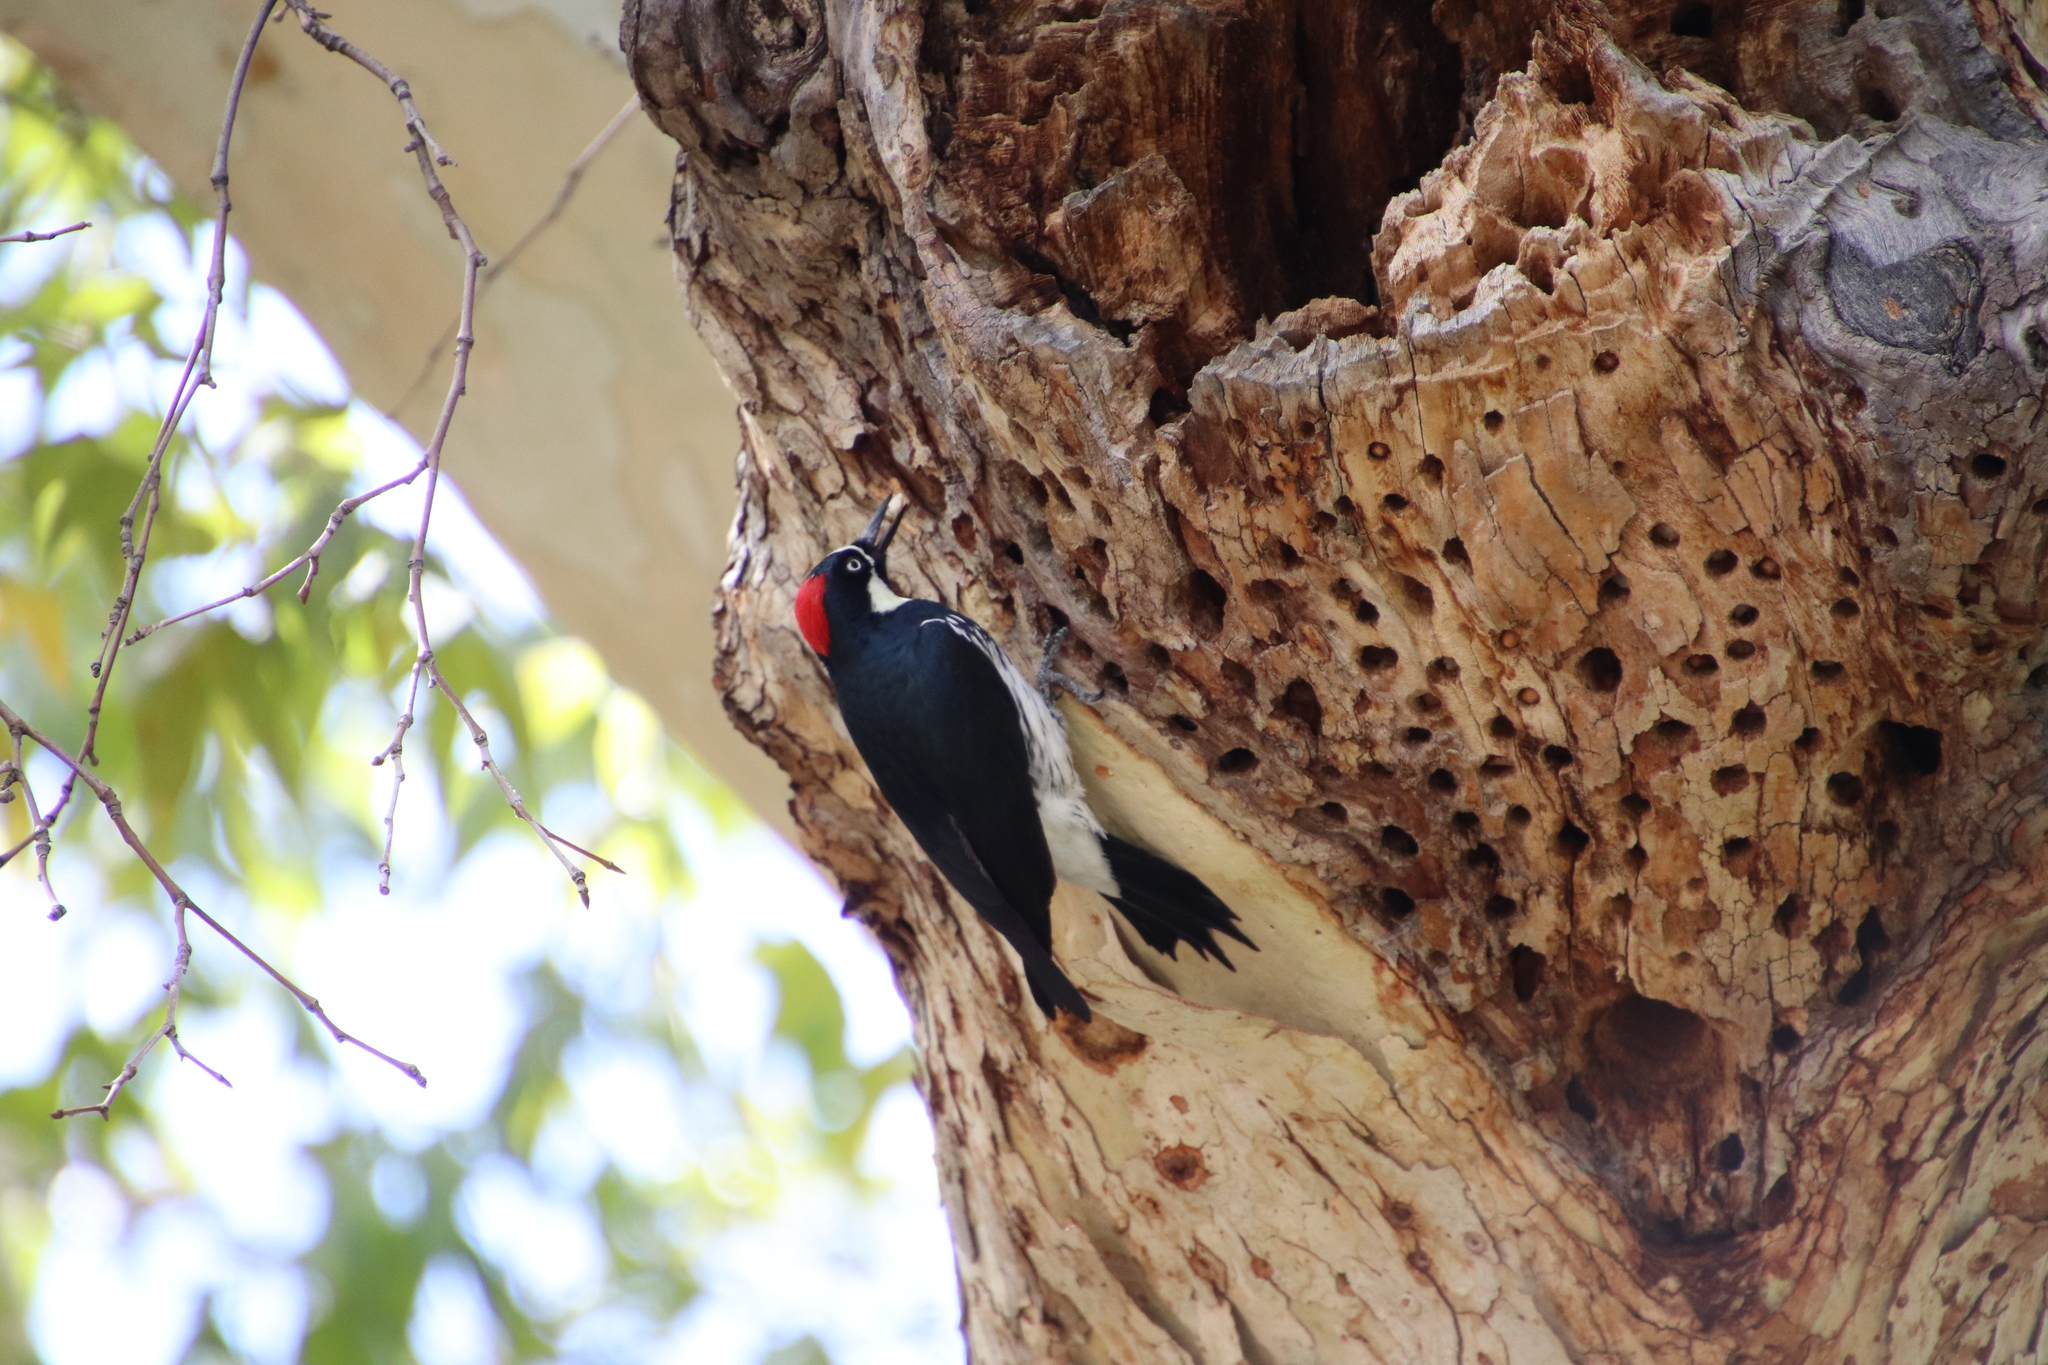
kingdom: Animalia
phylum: Chordata
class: Aves
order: Piciformes
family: Picidae
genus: Melanerpes
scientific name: Melanerpes formicivorus
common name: Acorn woodpecker
